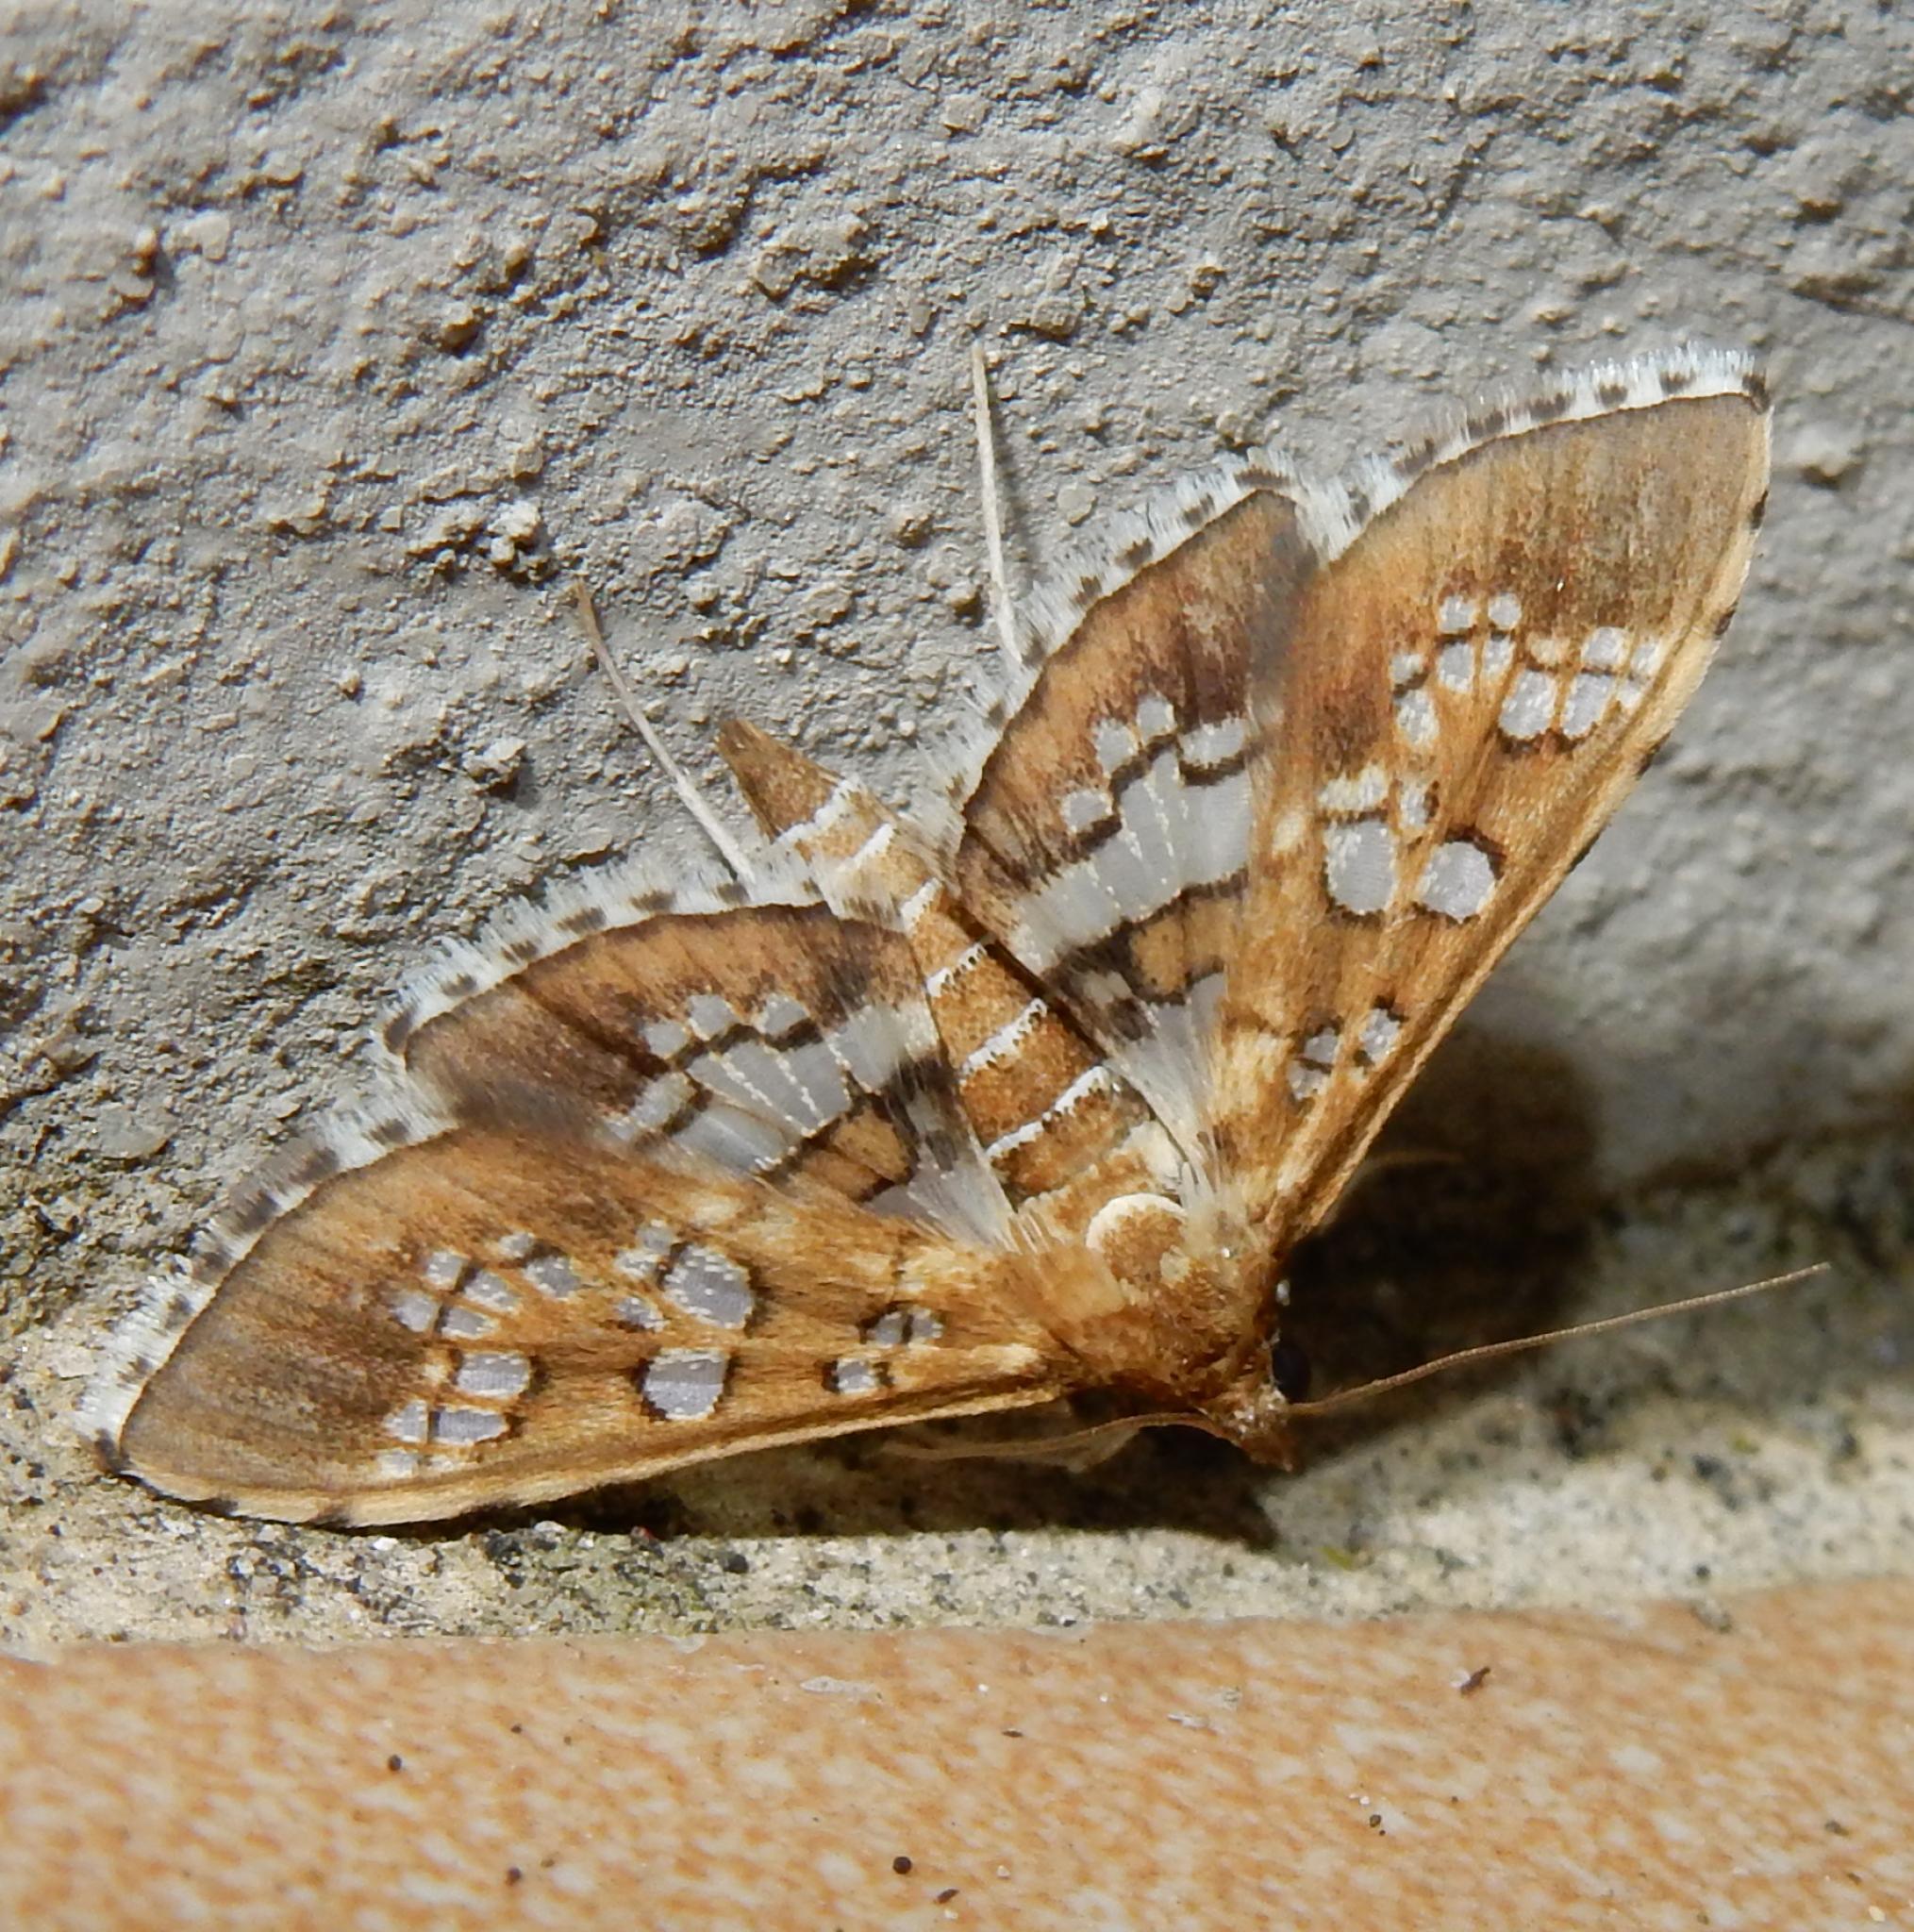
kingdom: Animalia
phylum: Arthropoda
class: Insecta
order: Lepidoptera
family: Crambidae
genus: Sameodes
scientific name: Sameodes cancellalis
